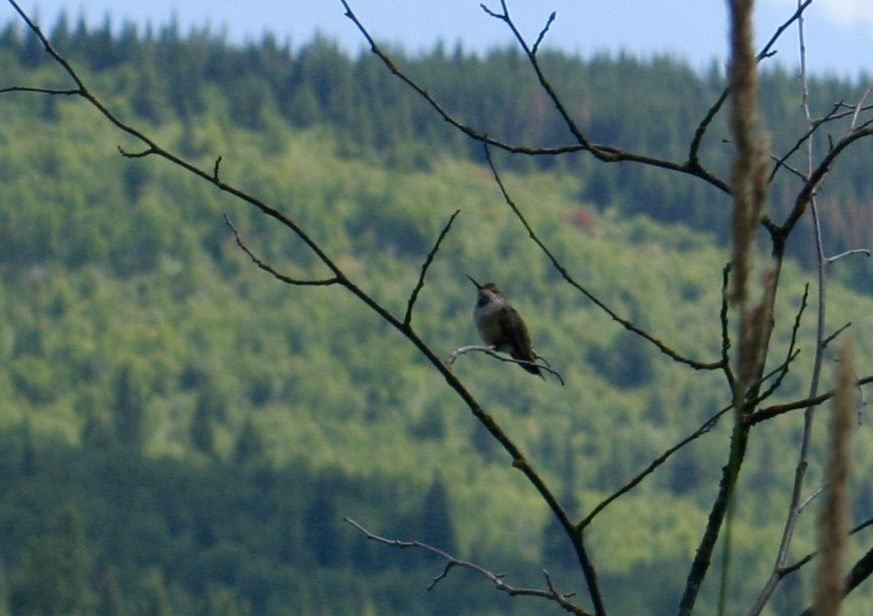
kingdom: Animalia
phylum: Chordata
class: Aves
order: Apodiformes
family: Trochilidae
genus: Selasphorus
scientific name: Selasphorus rufus
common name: Rufous hummingbird
